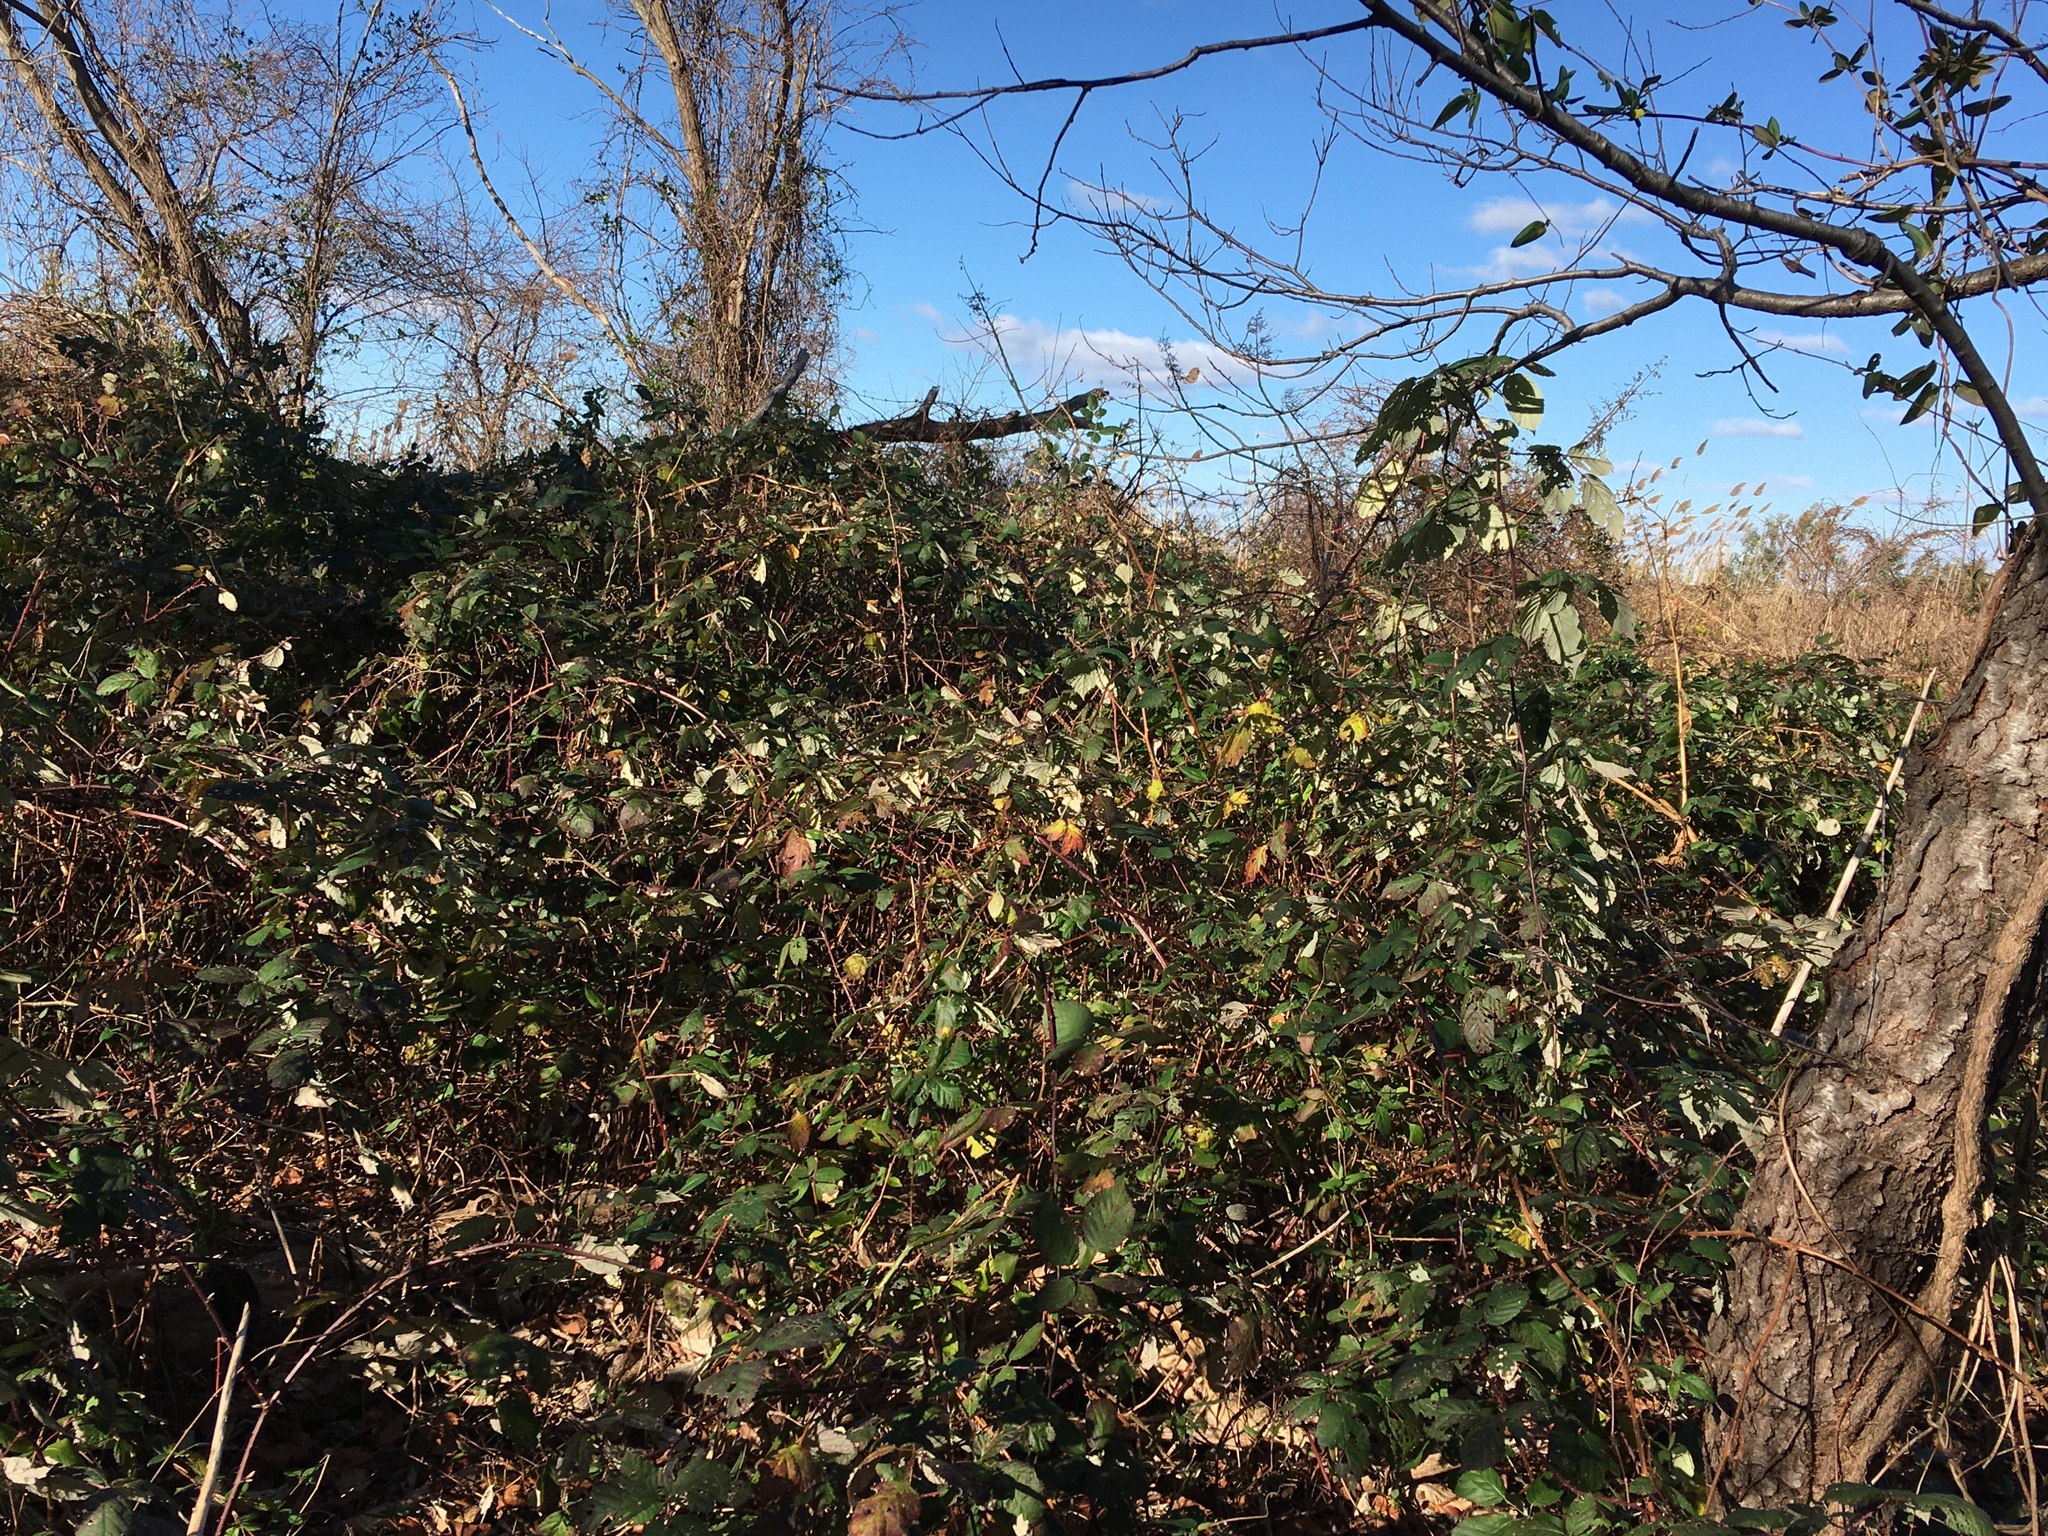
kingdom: Plantae
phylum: Tracheophyta
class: Magnoliopsida
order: Asterales
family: Asteraceae
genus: Baccharis
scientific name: Baccharis halimifolia
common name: Eastern baccharis
